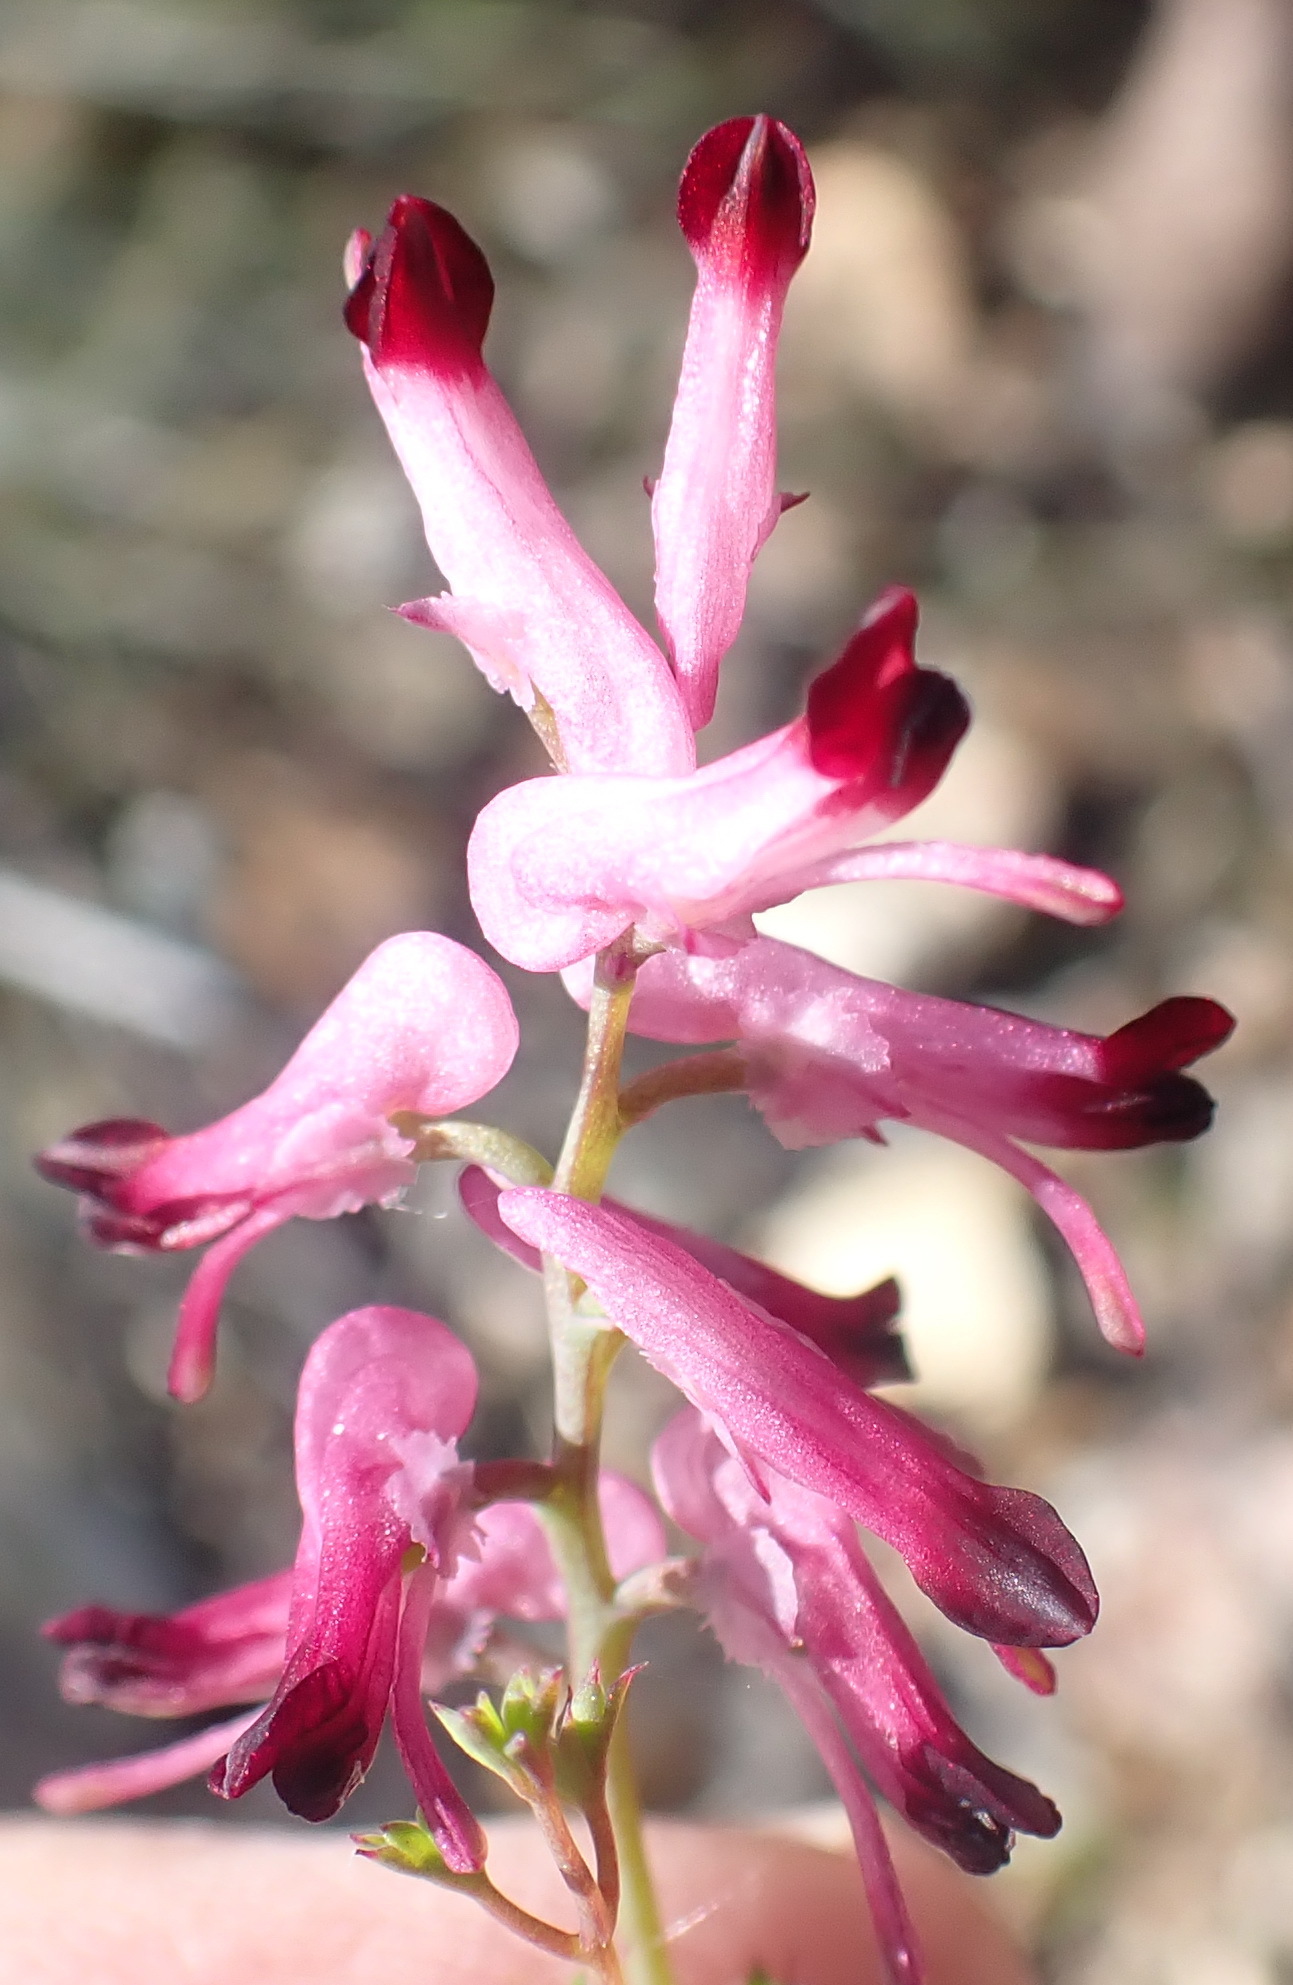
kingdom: Plantae
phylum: Tracheophyta
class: Magnoliopsida
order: Ranunculales
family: Papaveraceae
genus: Fumaria
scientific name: Fumaria muralis
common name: Common ramping-fumitory
